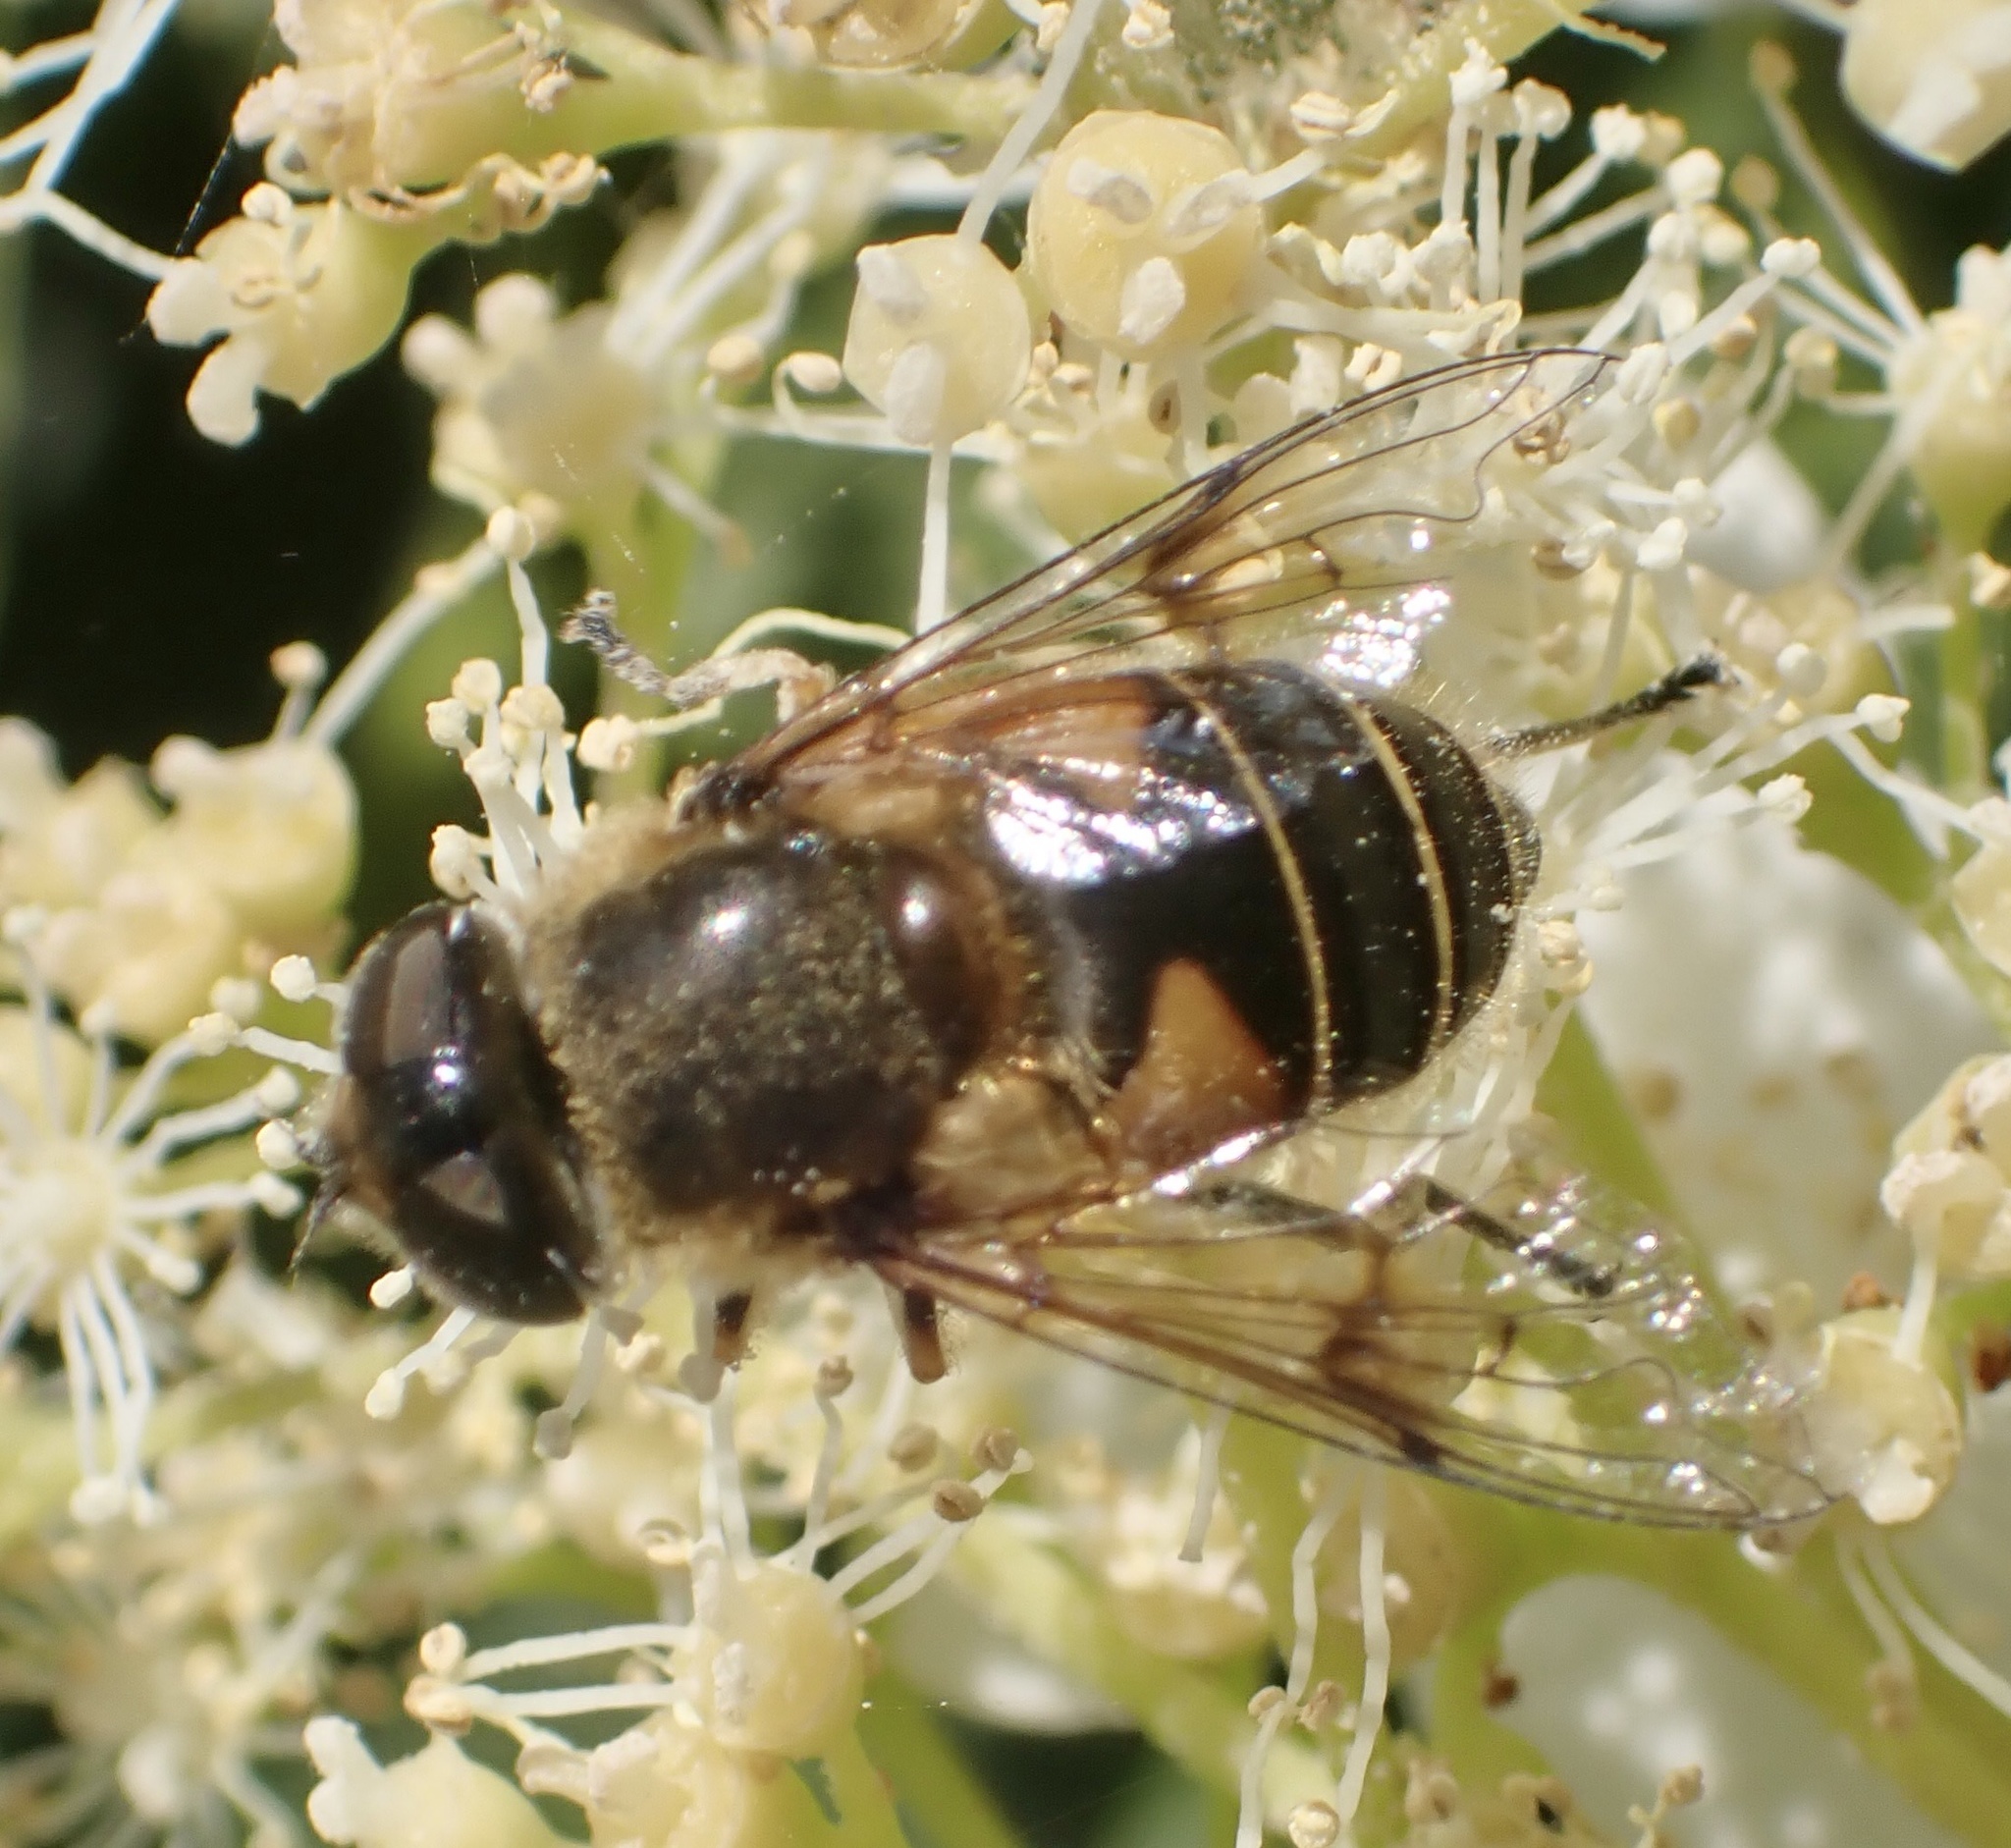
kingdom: Animalia
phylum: Arthropoda
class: Insecta
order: Diptera
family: Syrphidae
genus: Cheilosia
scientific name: Cheilosia morio
